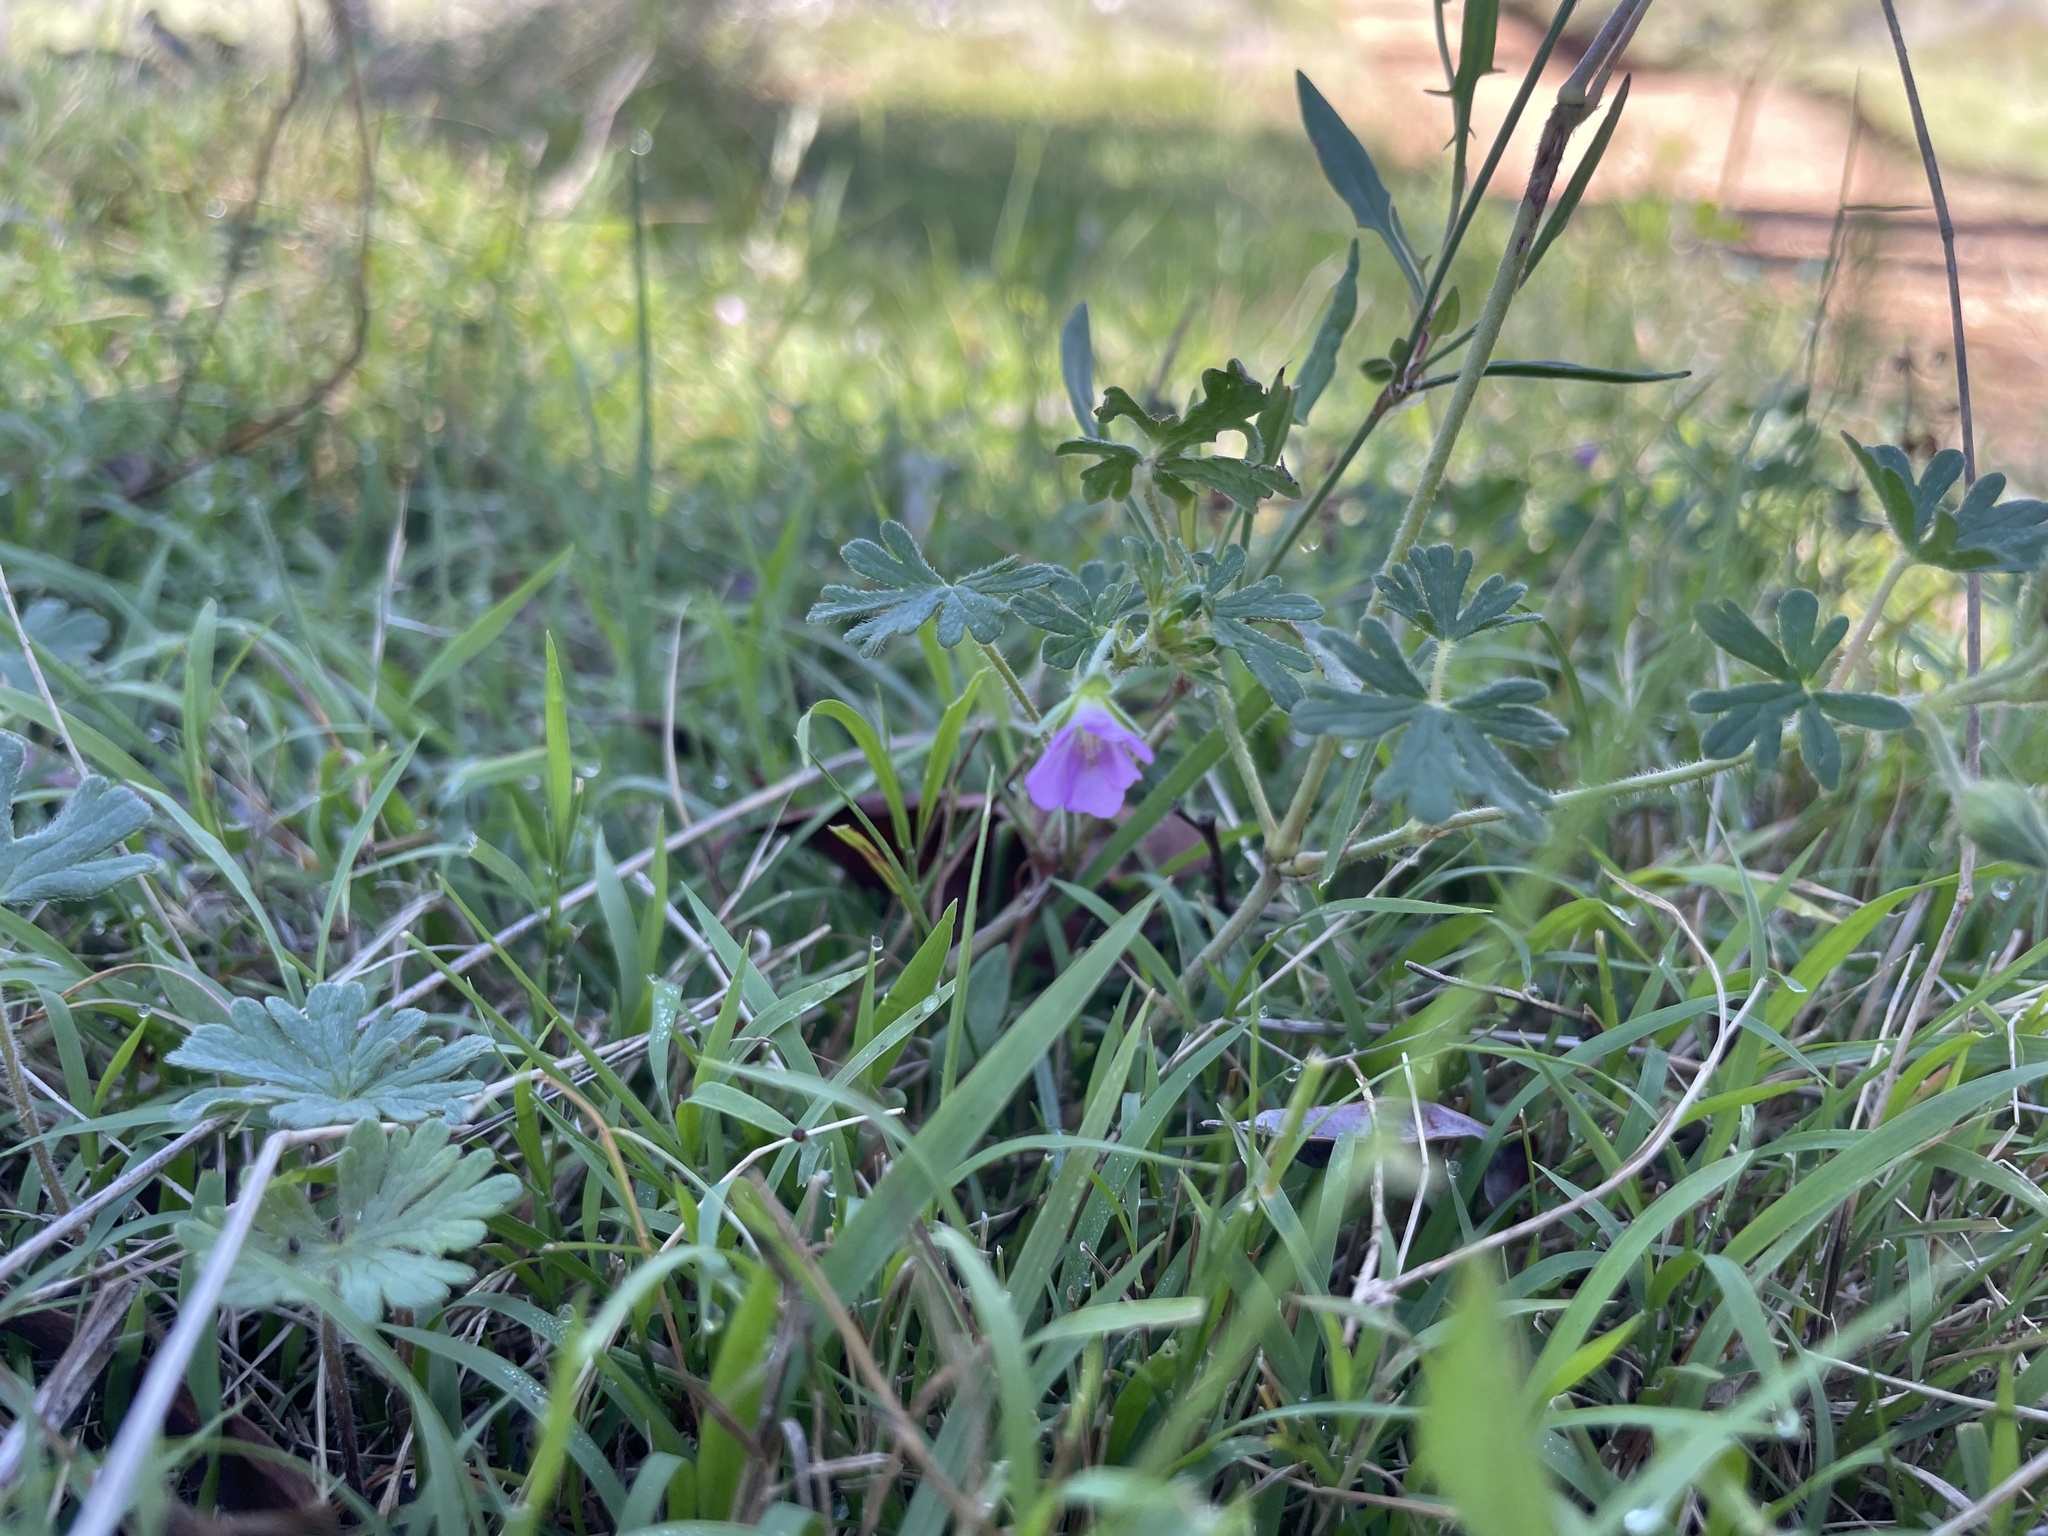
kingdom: Plantae
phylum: Tracheophyta
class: Magnoliopsida
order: Geraniales
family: Geraniaceae
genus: Geranium
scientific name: Geranium
